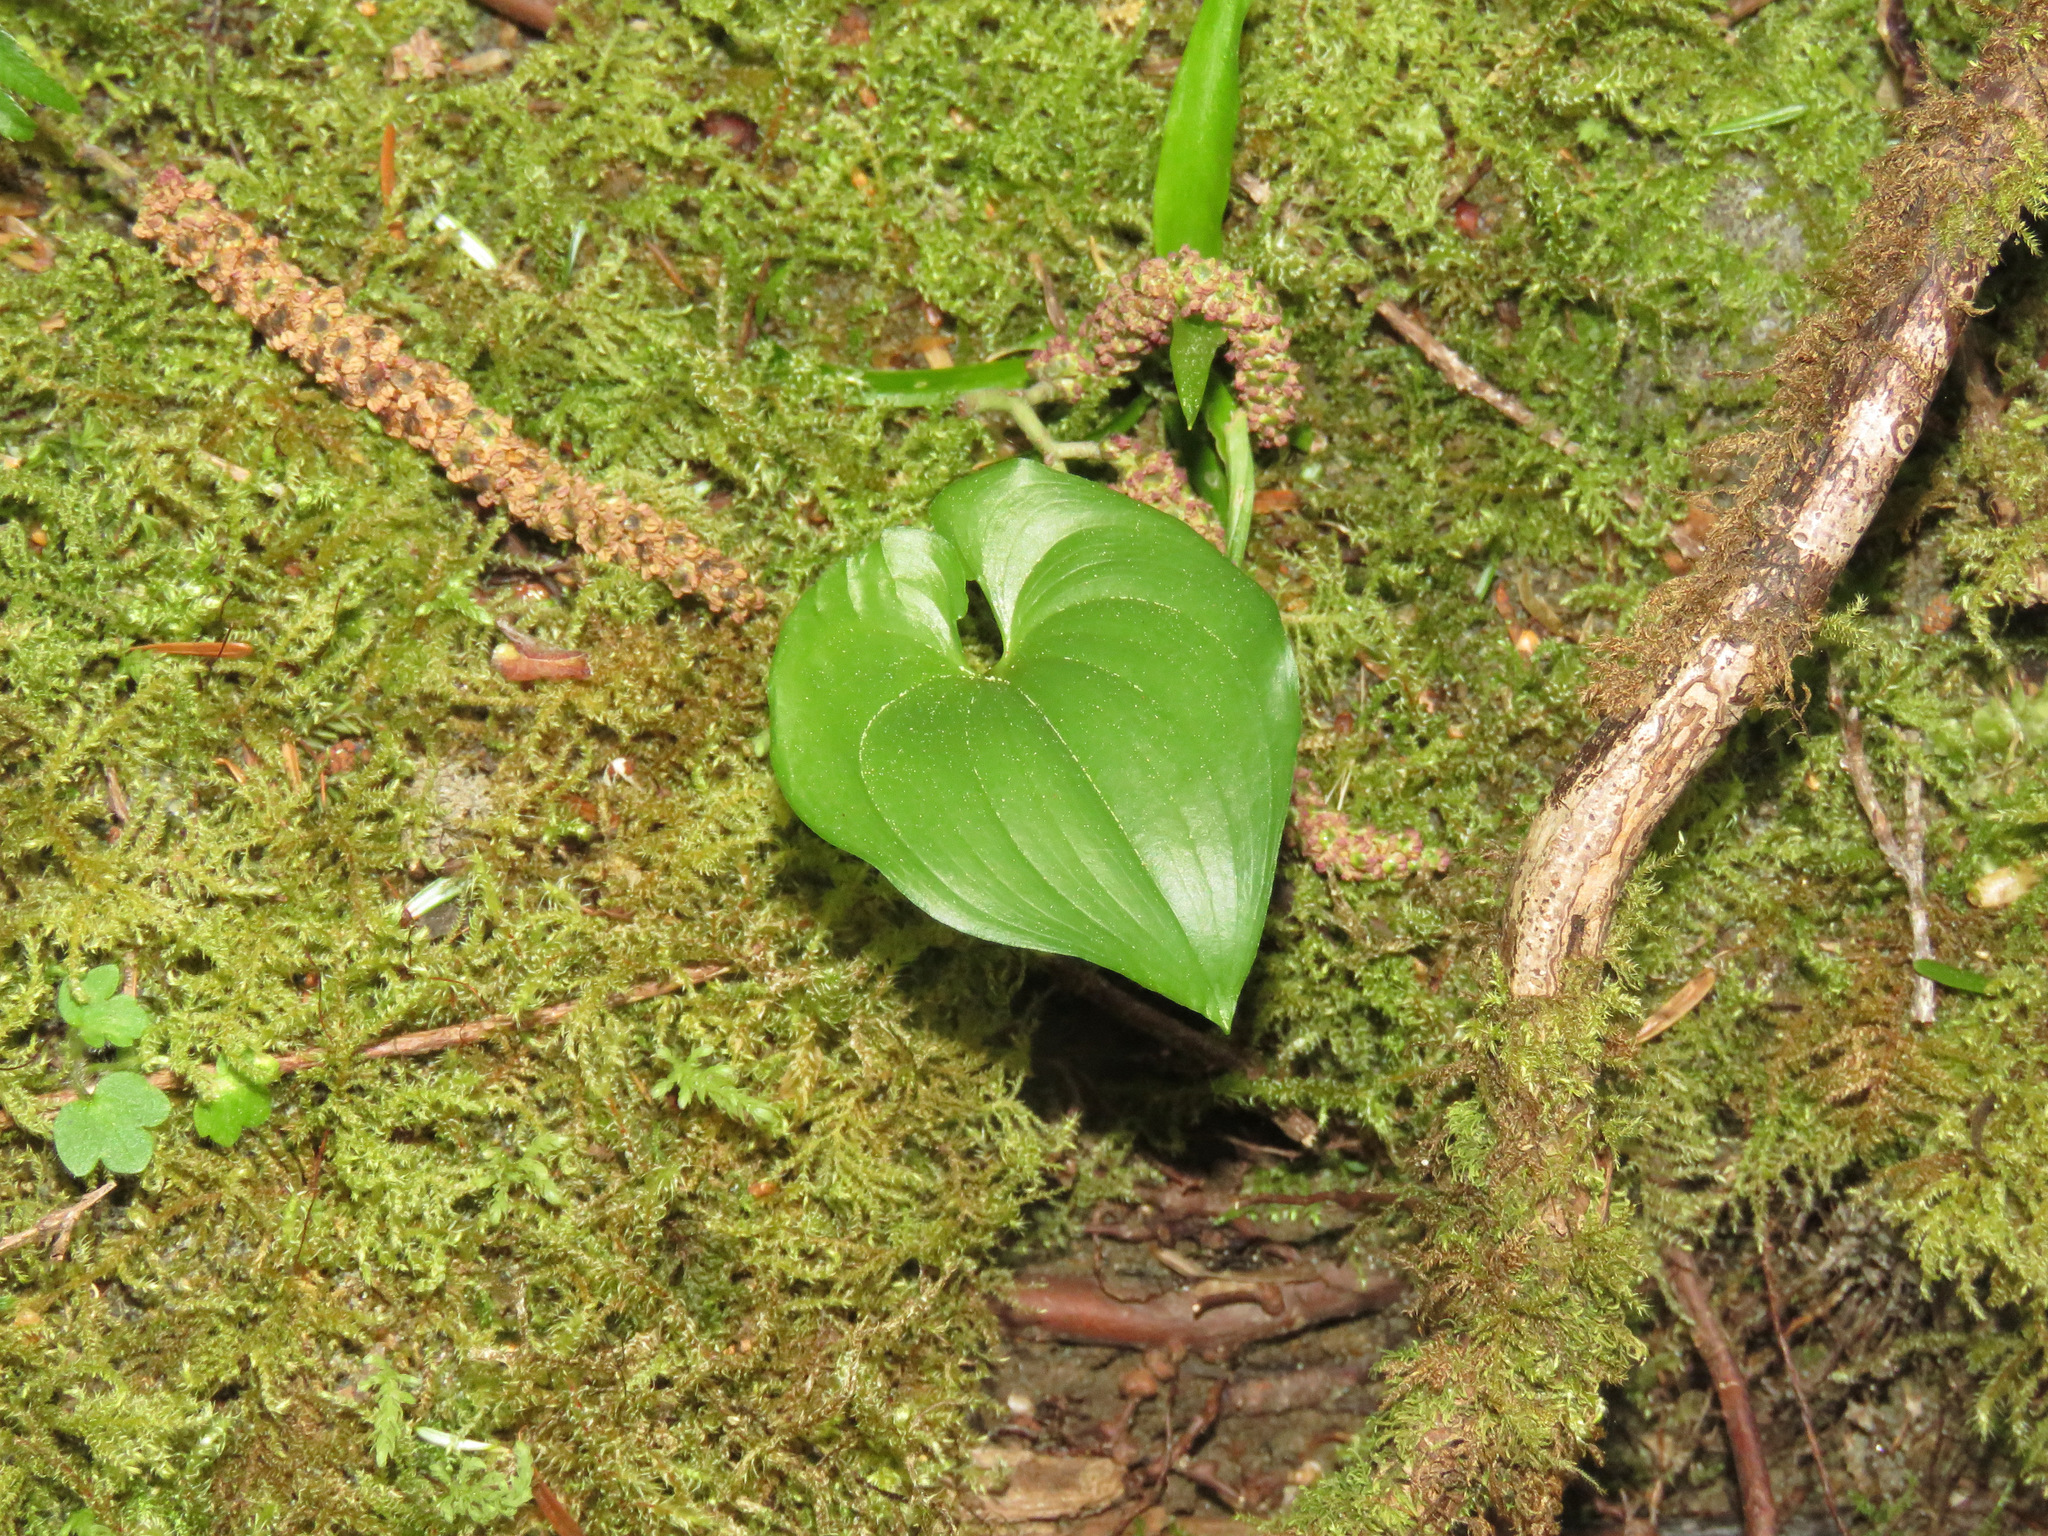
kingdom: Plantae
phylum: Tracheophyta
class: Liliopsida
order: Asparagales
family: Asparagaceae
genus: Maianthemum
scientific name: Maianthemum dilatatum
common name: False lily-of-the-valley
